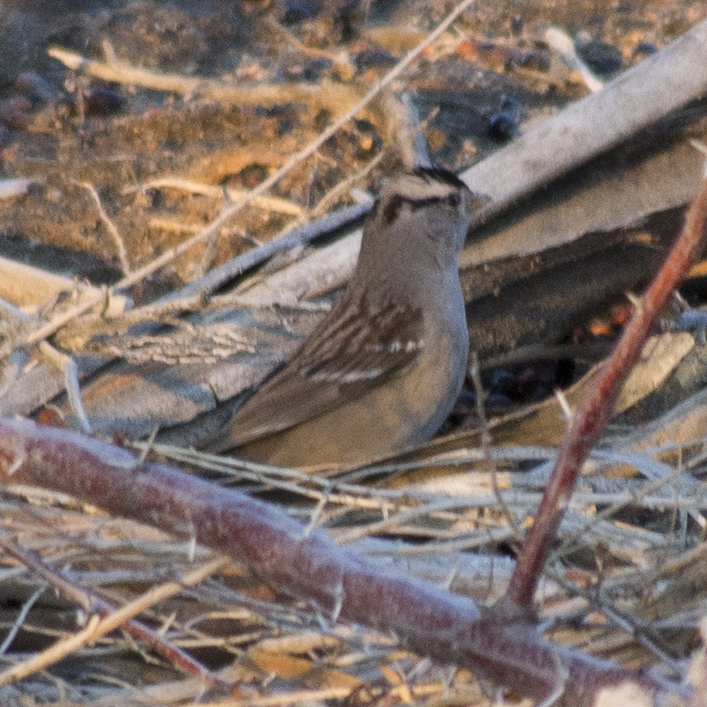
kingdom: Animalia
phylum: Chordata
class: Aves
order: Passeriformes
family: Passerellidae
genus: Zonotrichia
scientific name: Zonotrichia leucophrys
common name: White-crowned sparrow
